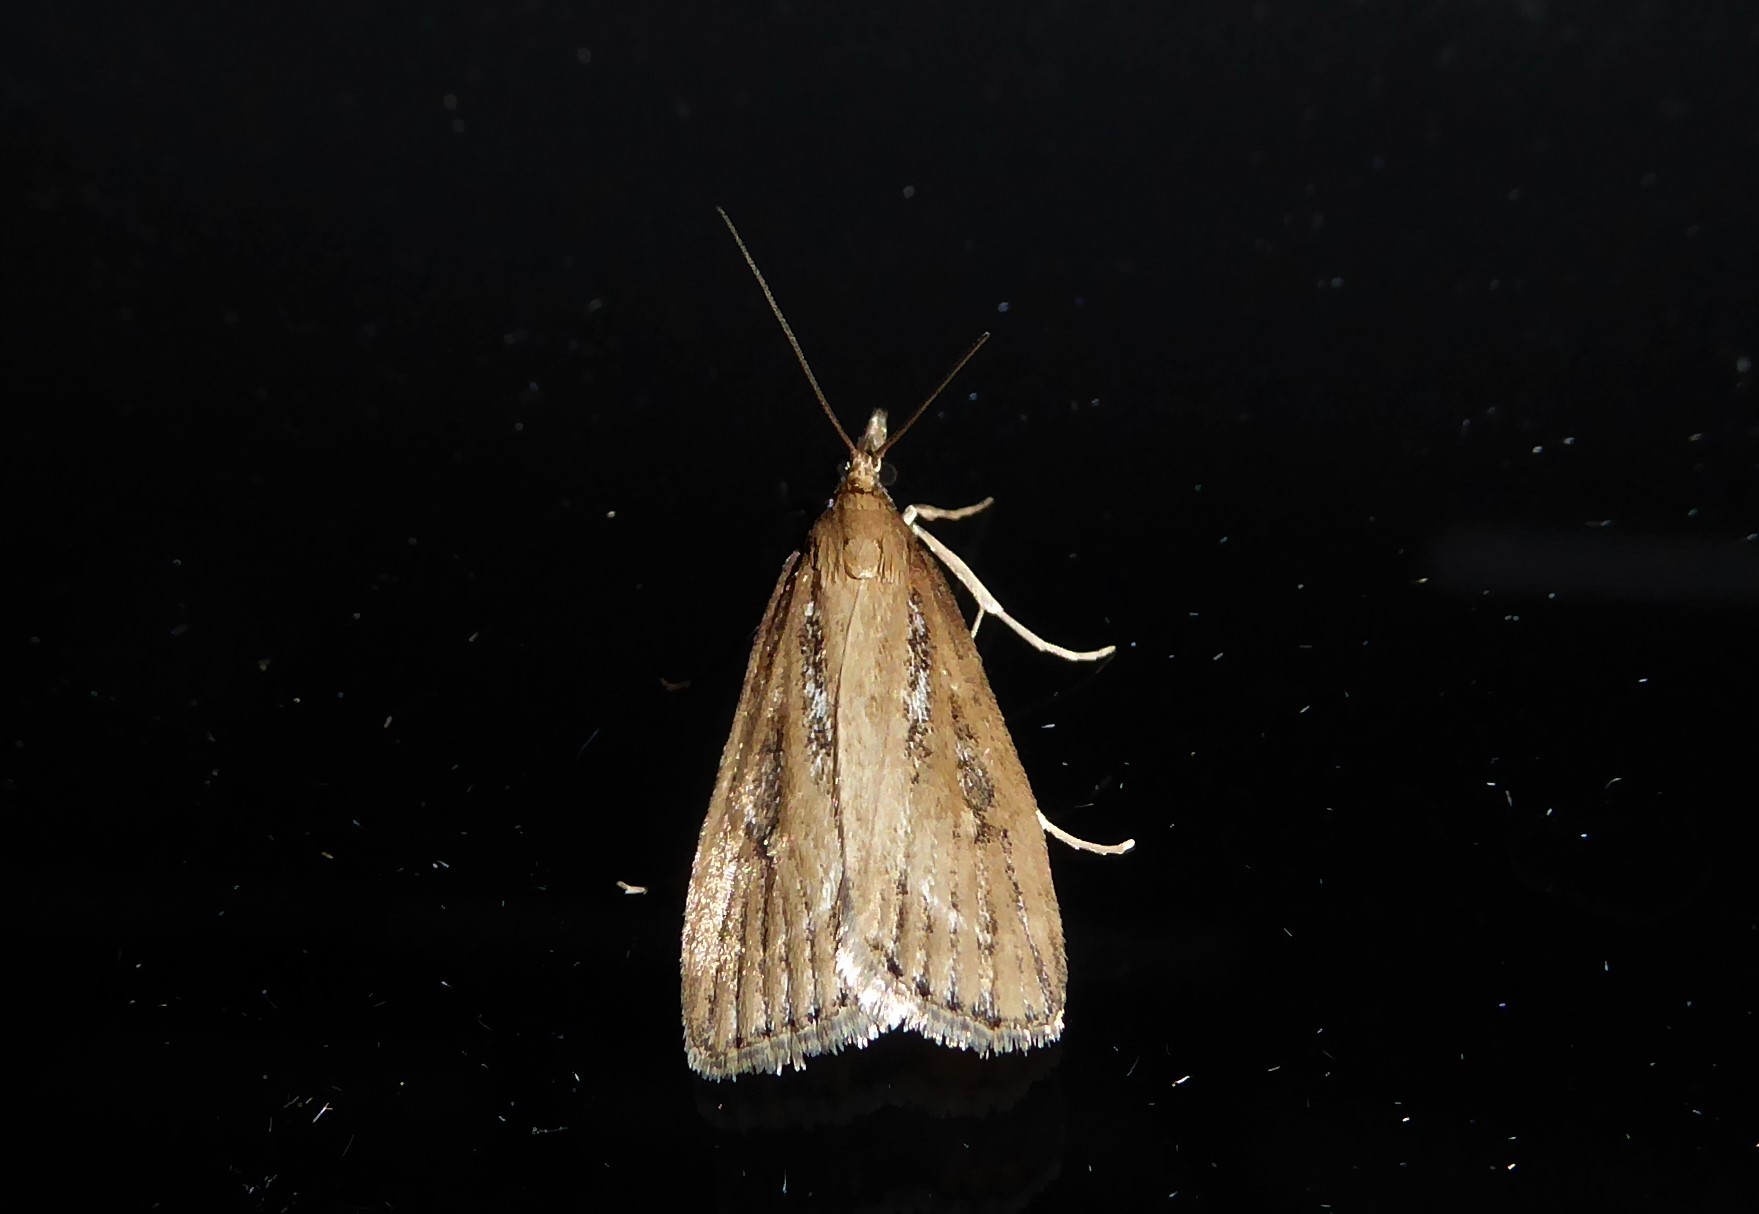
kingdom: Animalia
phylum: Arthropoda
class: Insecta
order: Lepidoptera
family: Crambidae
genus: Eudonia
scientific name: Eudonia octophora
